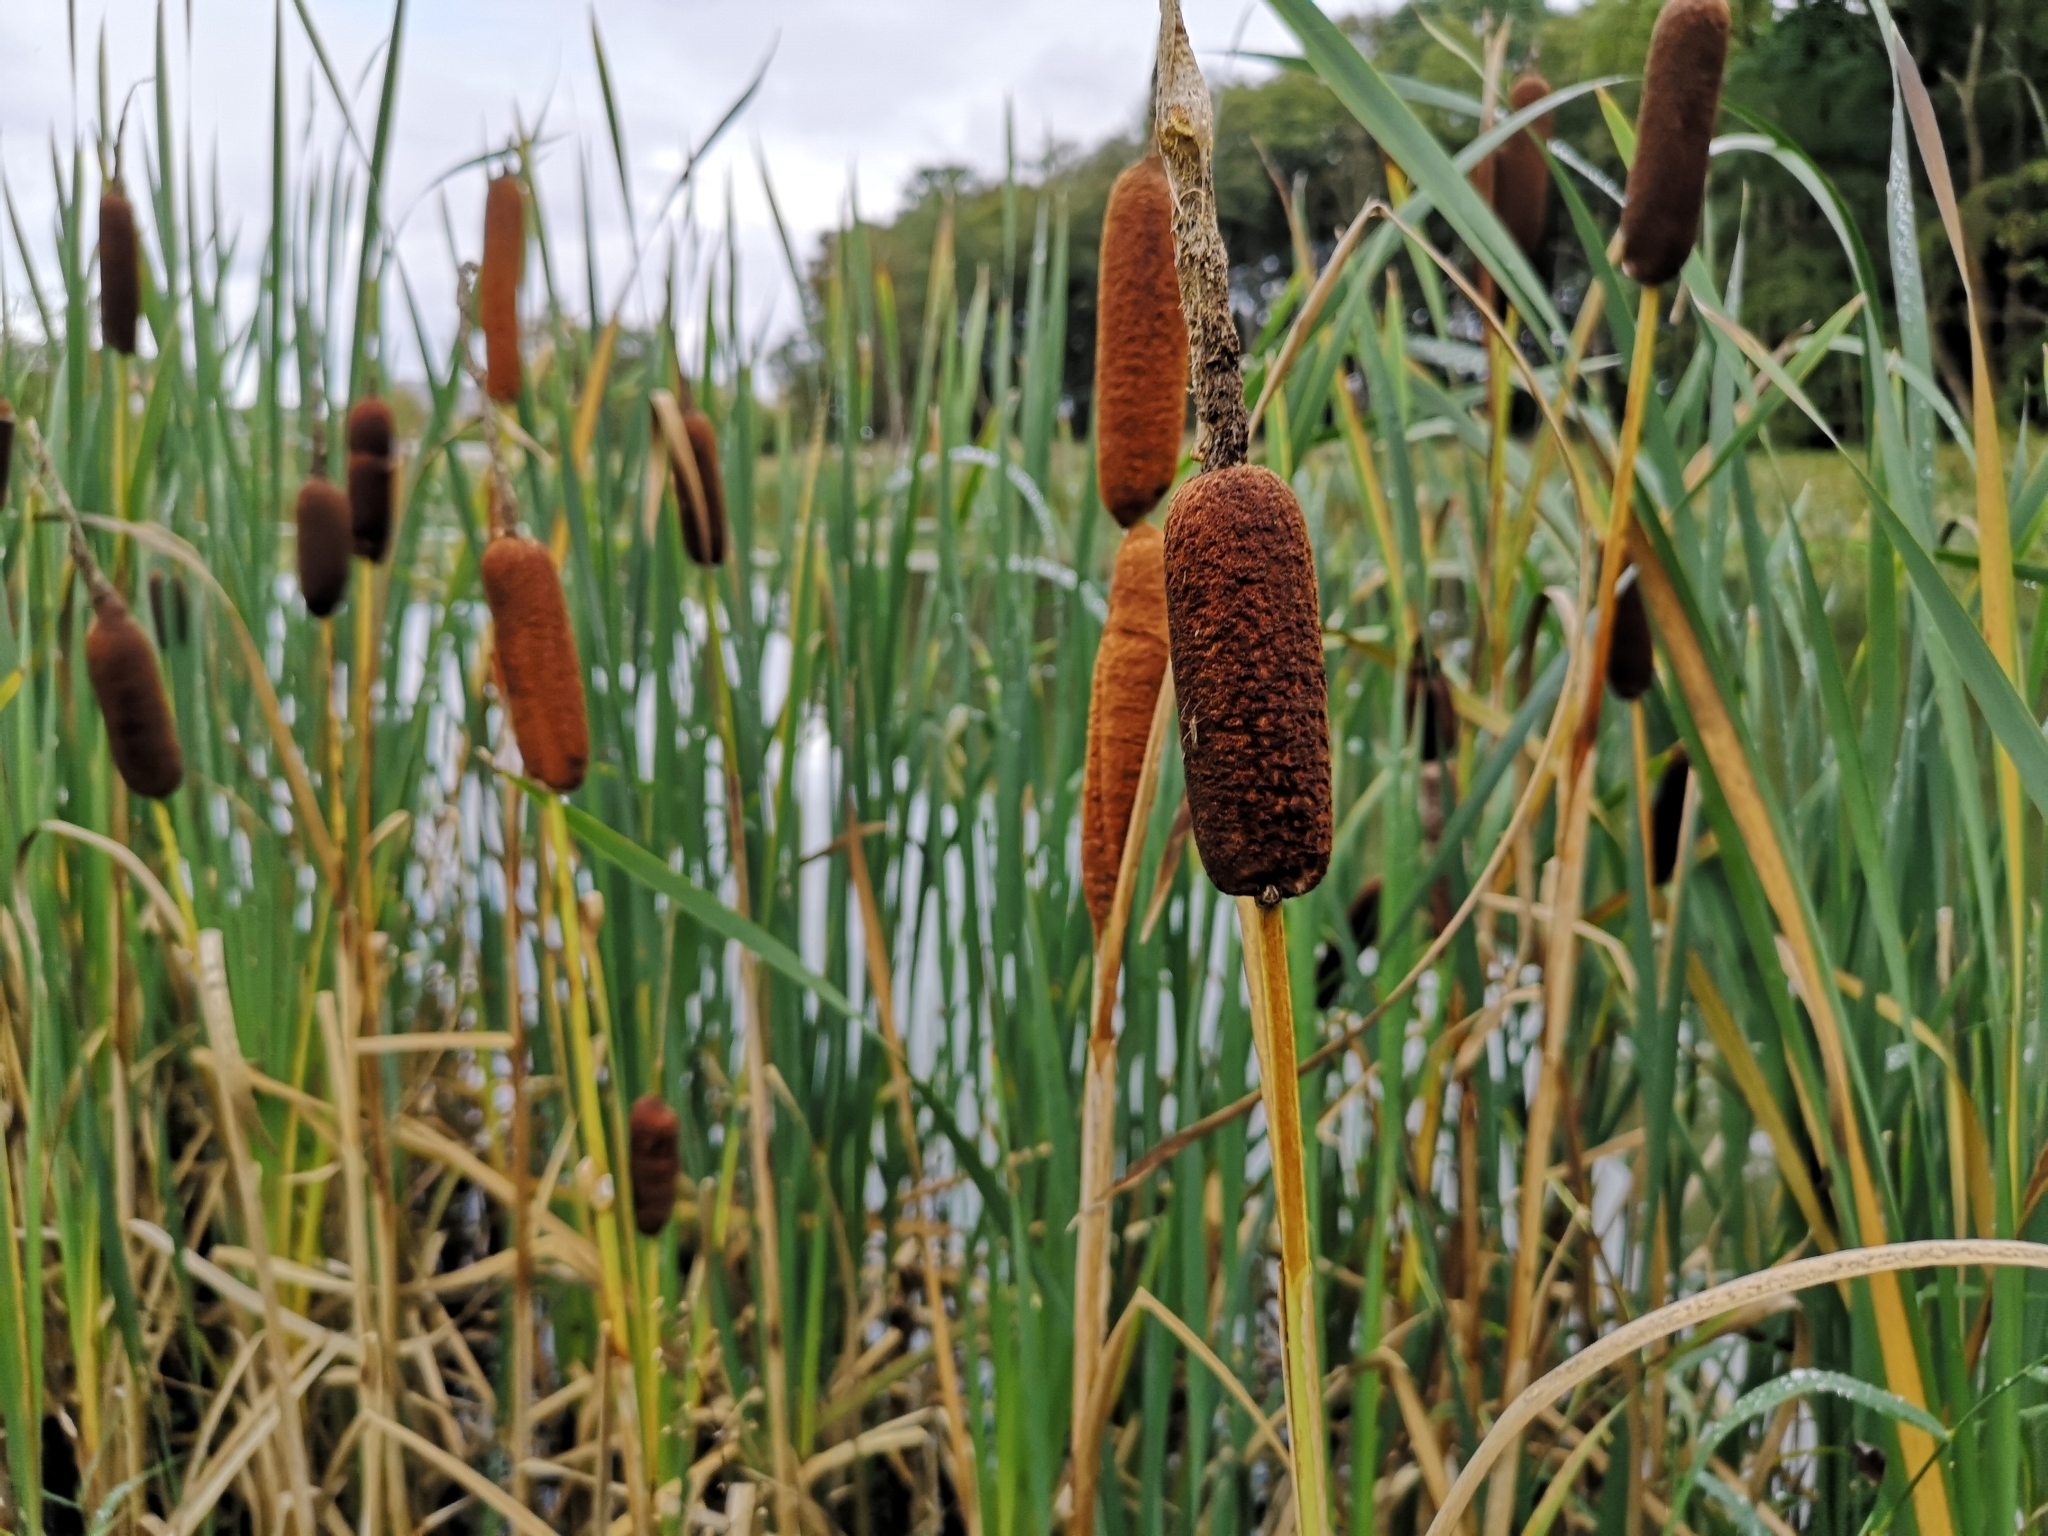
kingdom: Plantae
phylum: Tracheophyta
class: Liliopsida
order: Poales
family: Typhaceae
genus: Typha
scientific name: Typha latifolia
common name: Broadleaf cattail
